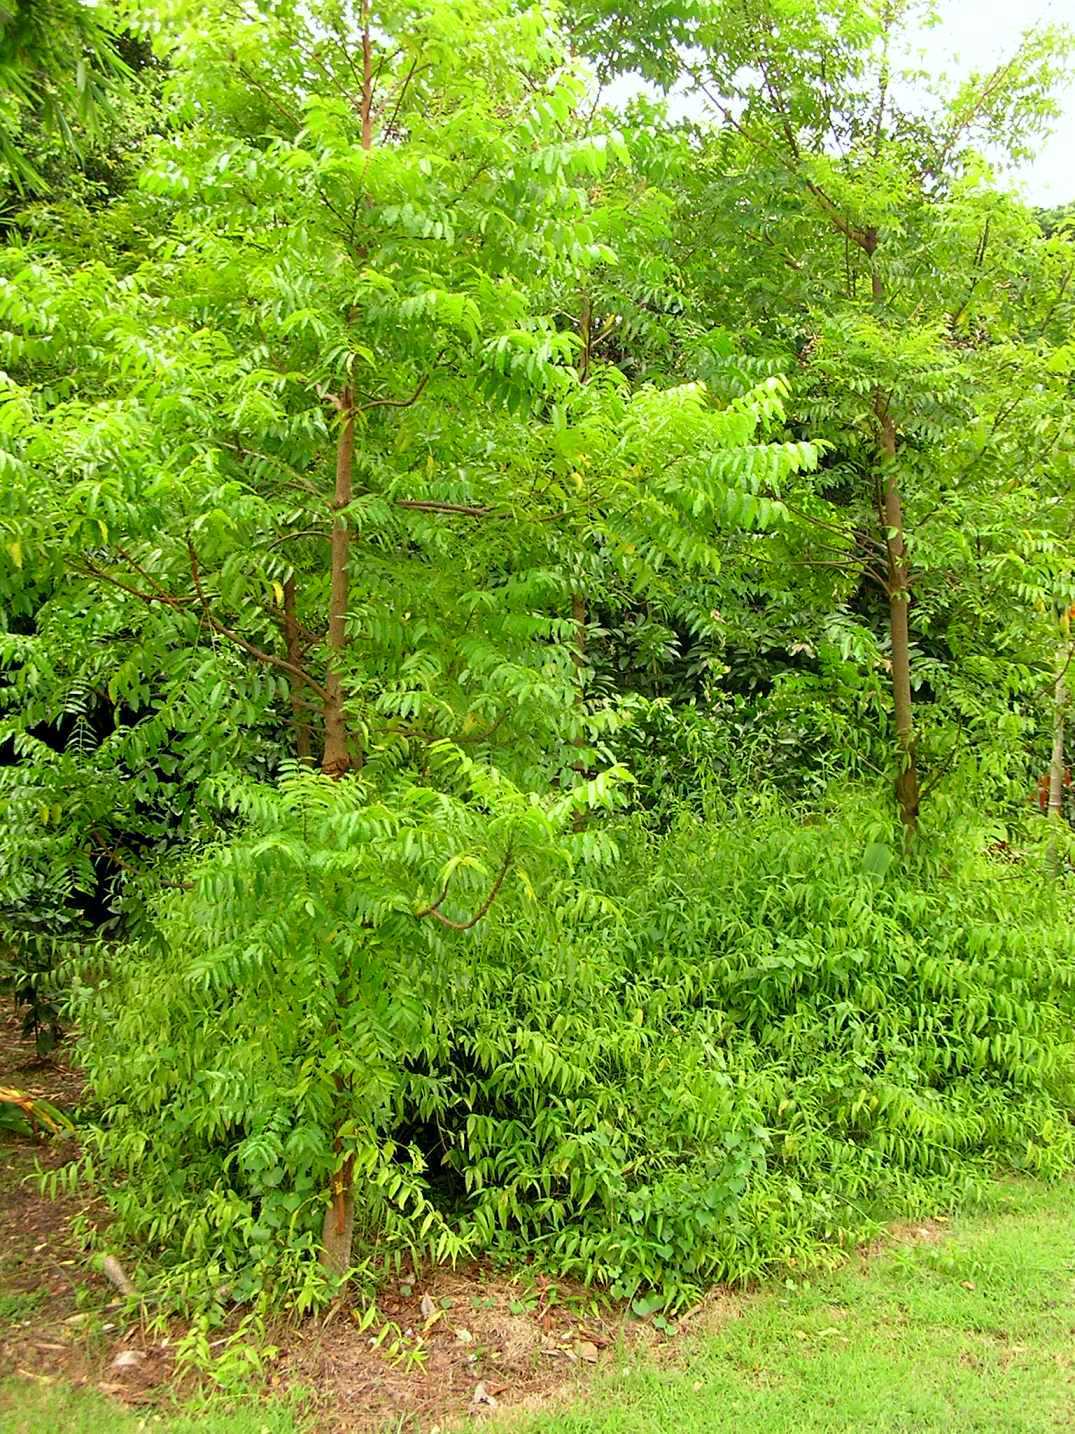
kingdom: Plantae
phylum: Tracheophyta
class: Magnoliopsida
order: Sapindales
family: Meliaceae
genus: Azadirachta
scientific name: Azadirachta indica
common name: Neem
